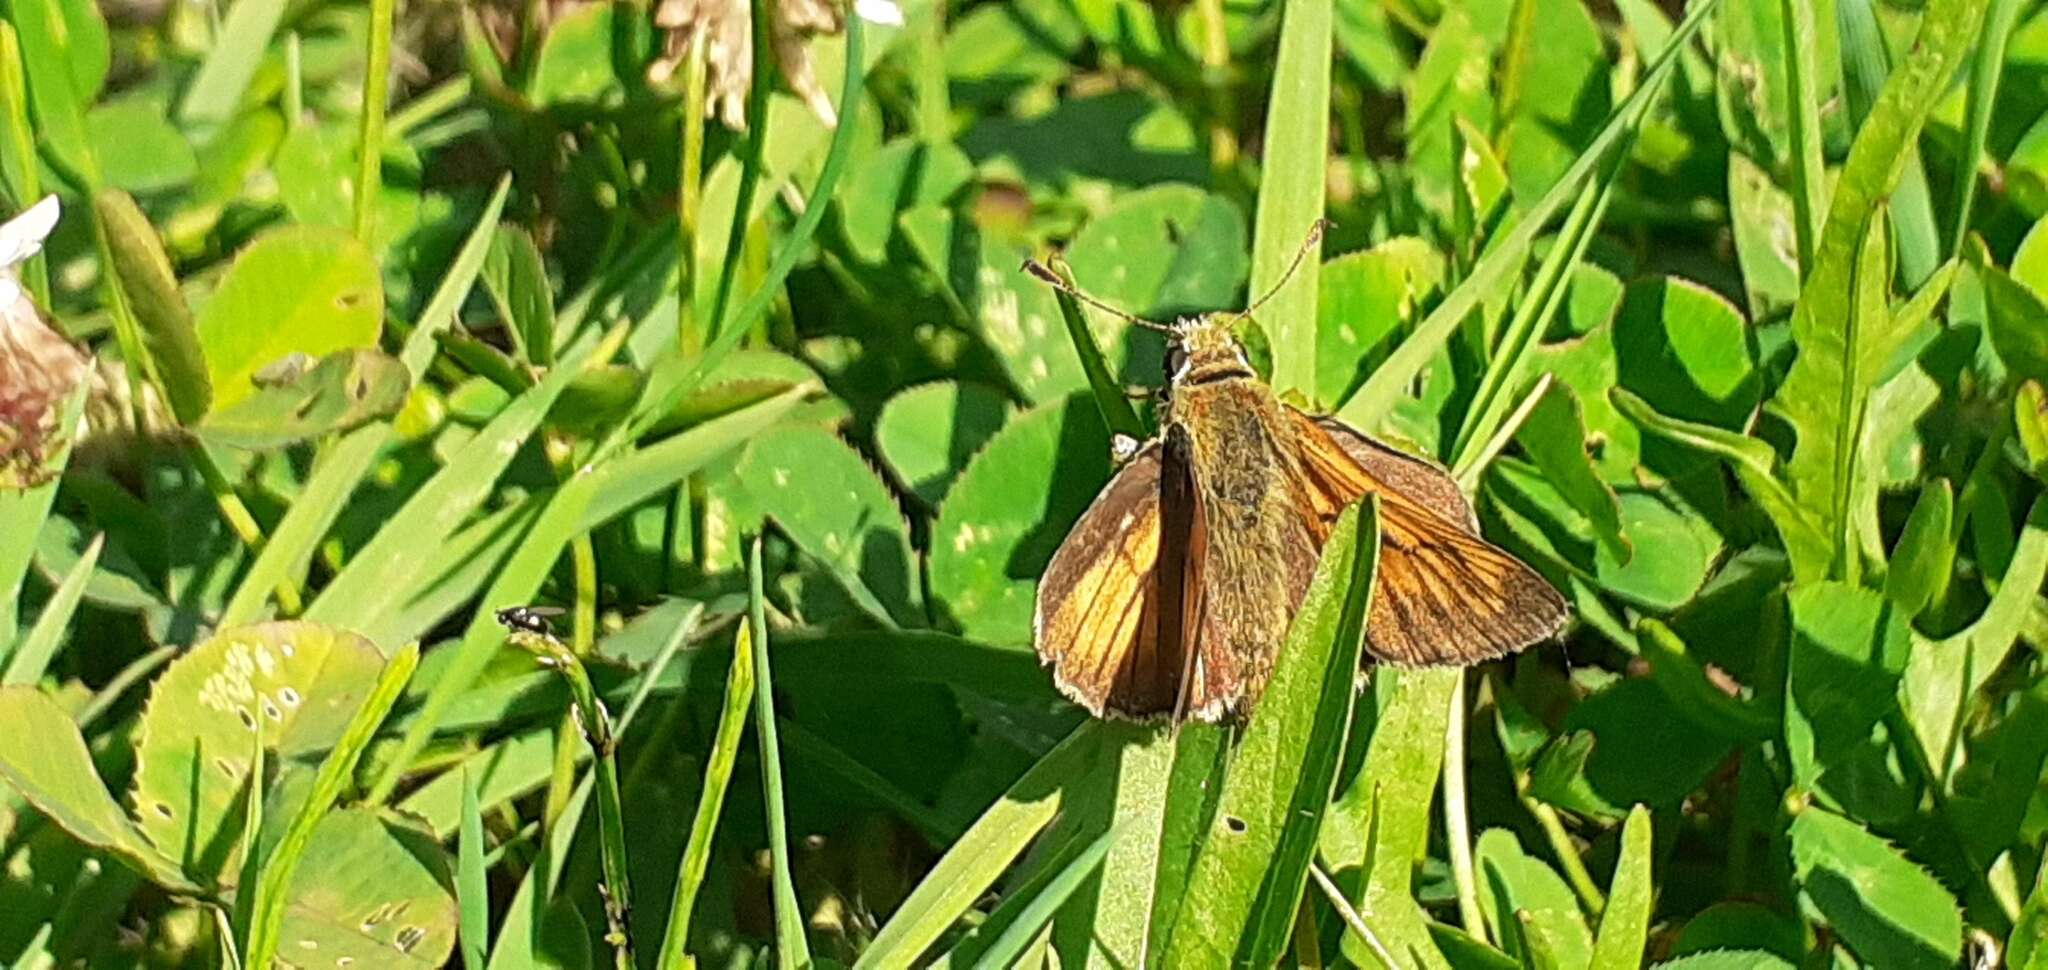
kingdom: Animalia
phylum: Arthropoda
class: Insecta
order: Lepidoptera
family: Hesperiidae
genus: Ochlodes
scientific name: Ochlodes venata
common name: Large skipper
